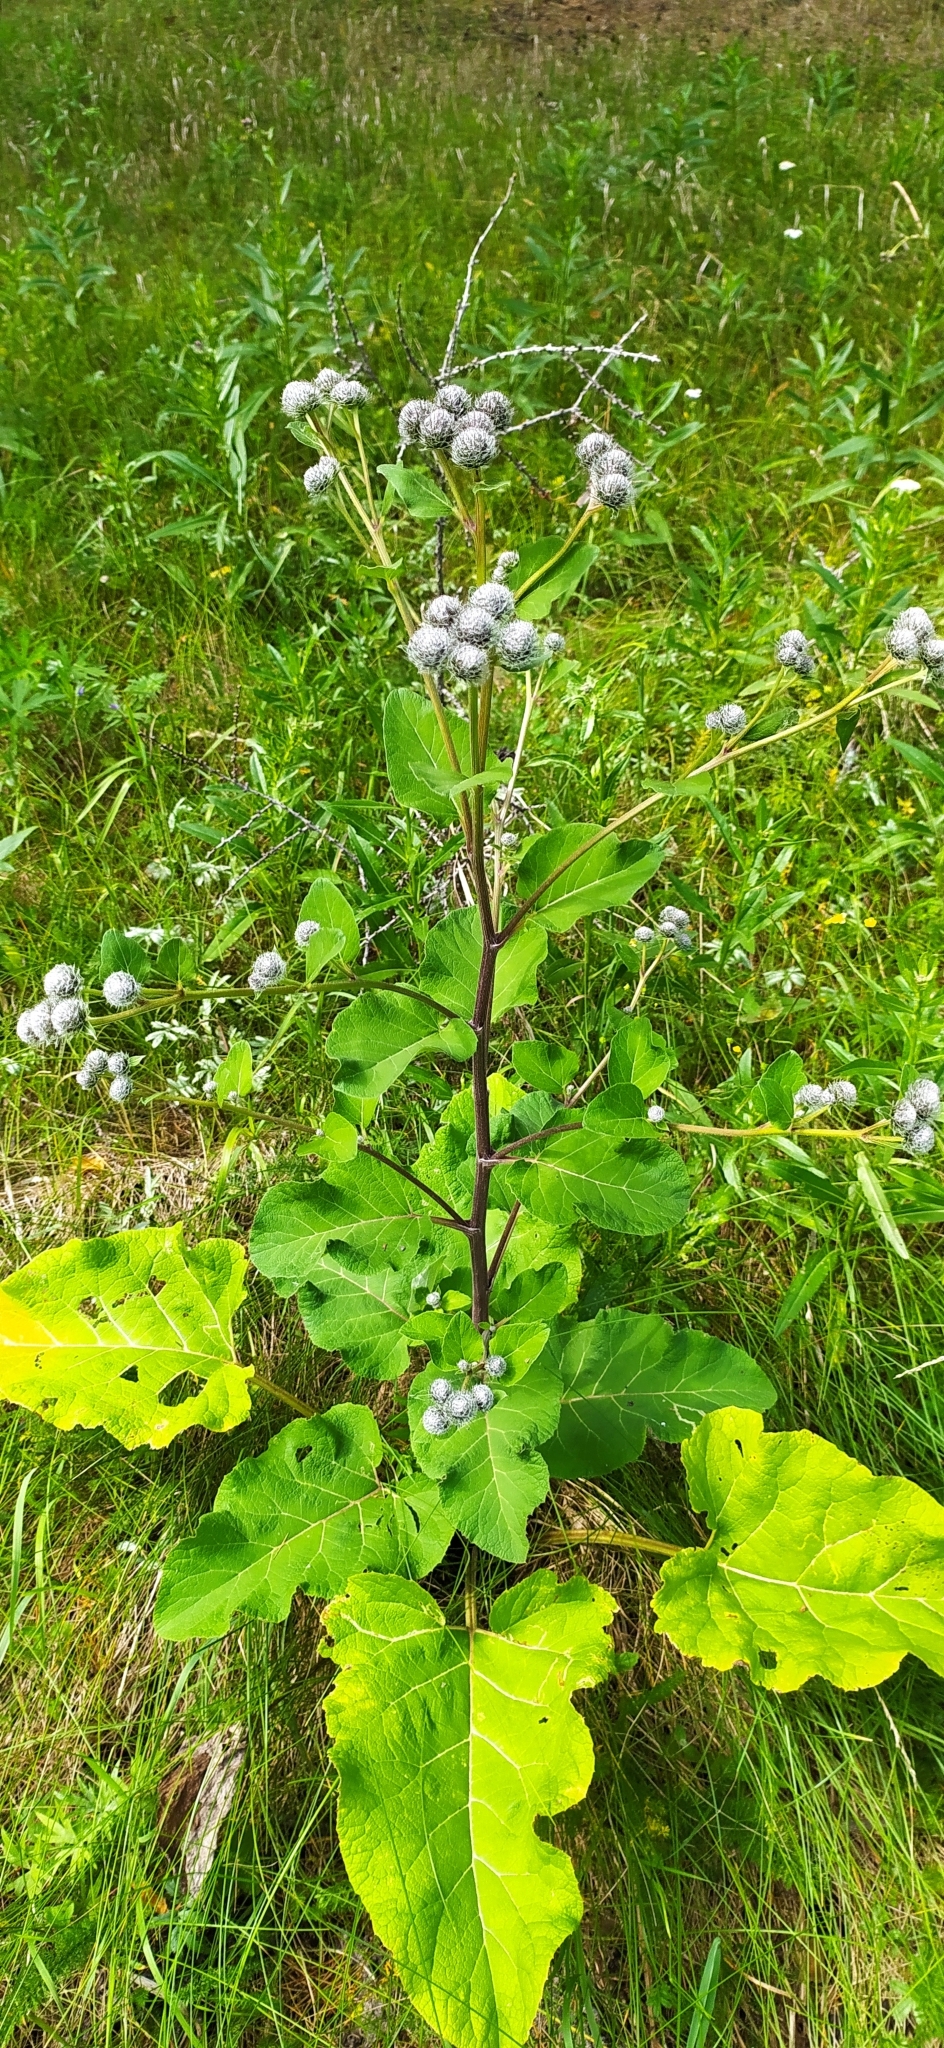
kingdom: Plantae
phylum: Tracheophyta
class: Magnoliopsida
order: Asterales
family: Asteraceae
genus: Arctium
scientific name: Arctium tomentosum
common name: Woolly burdock
